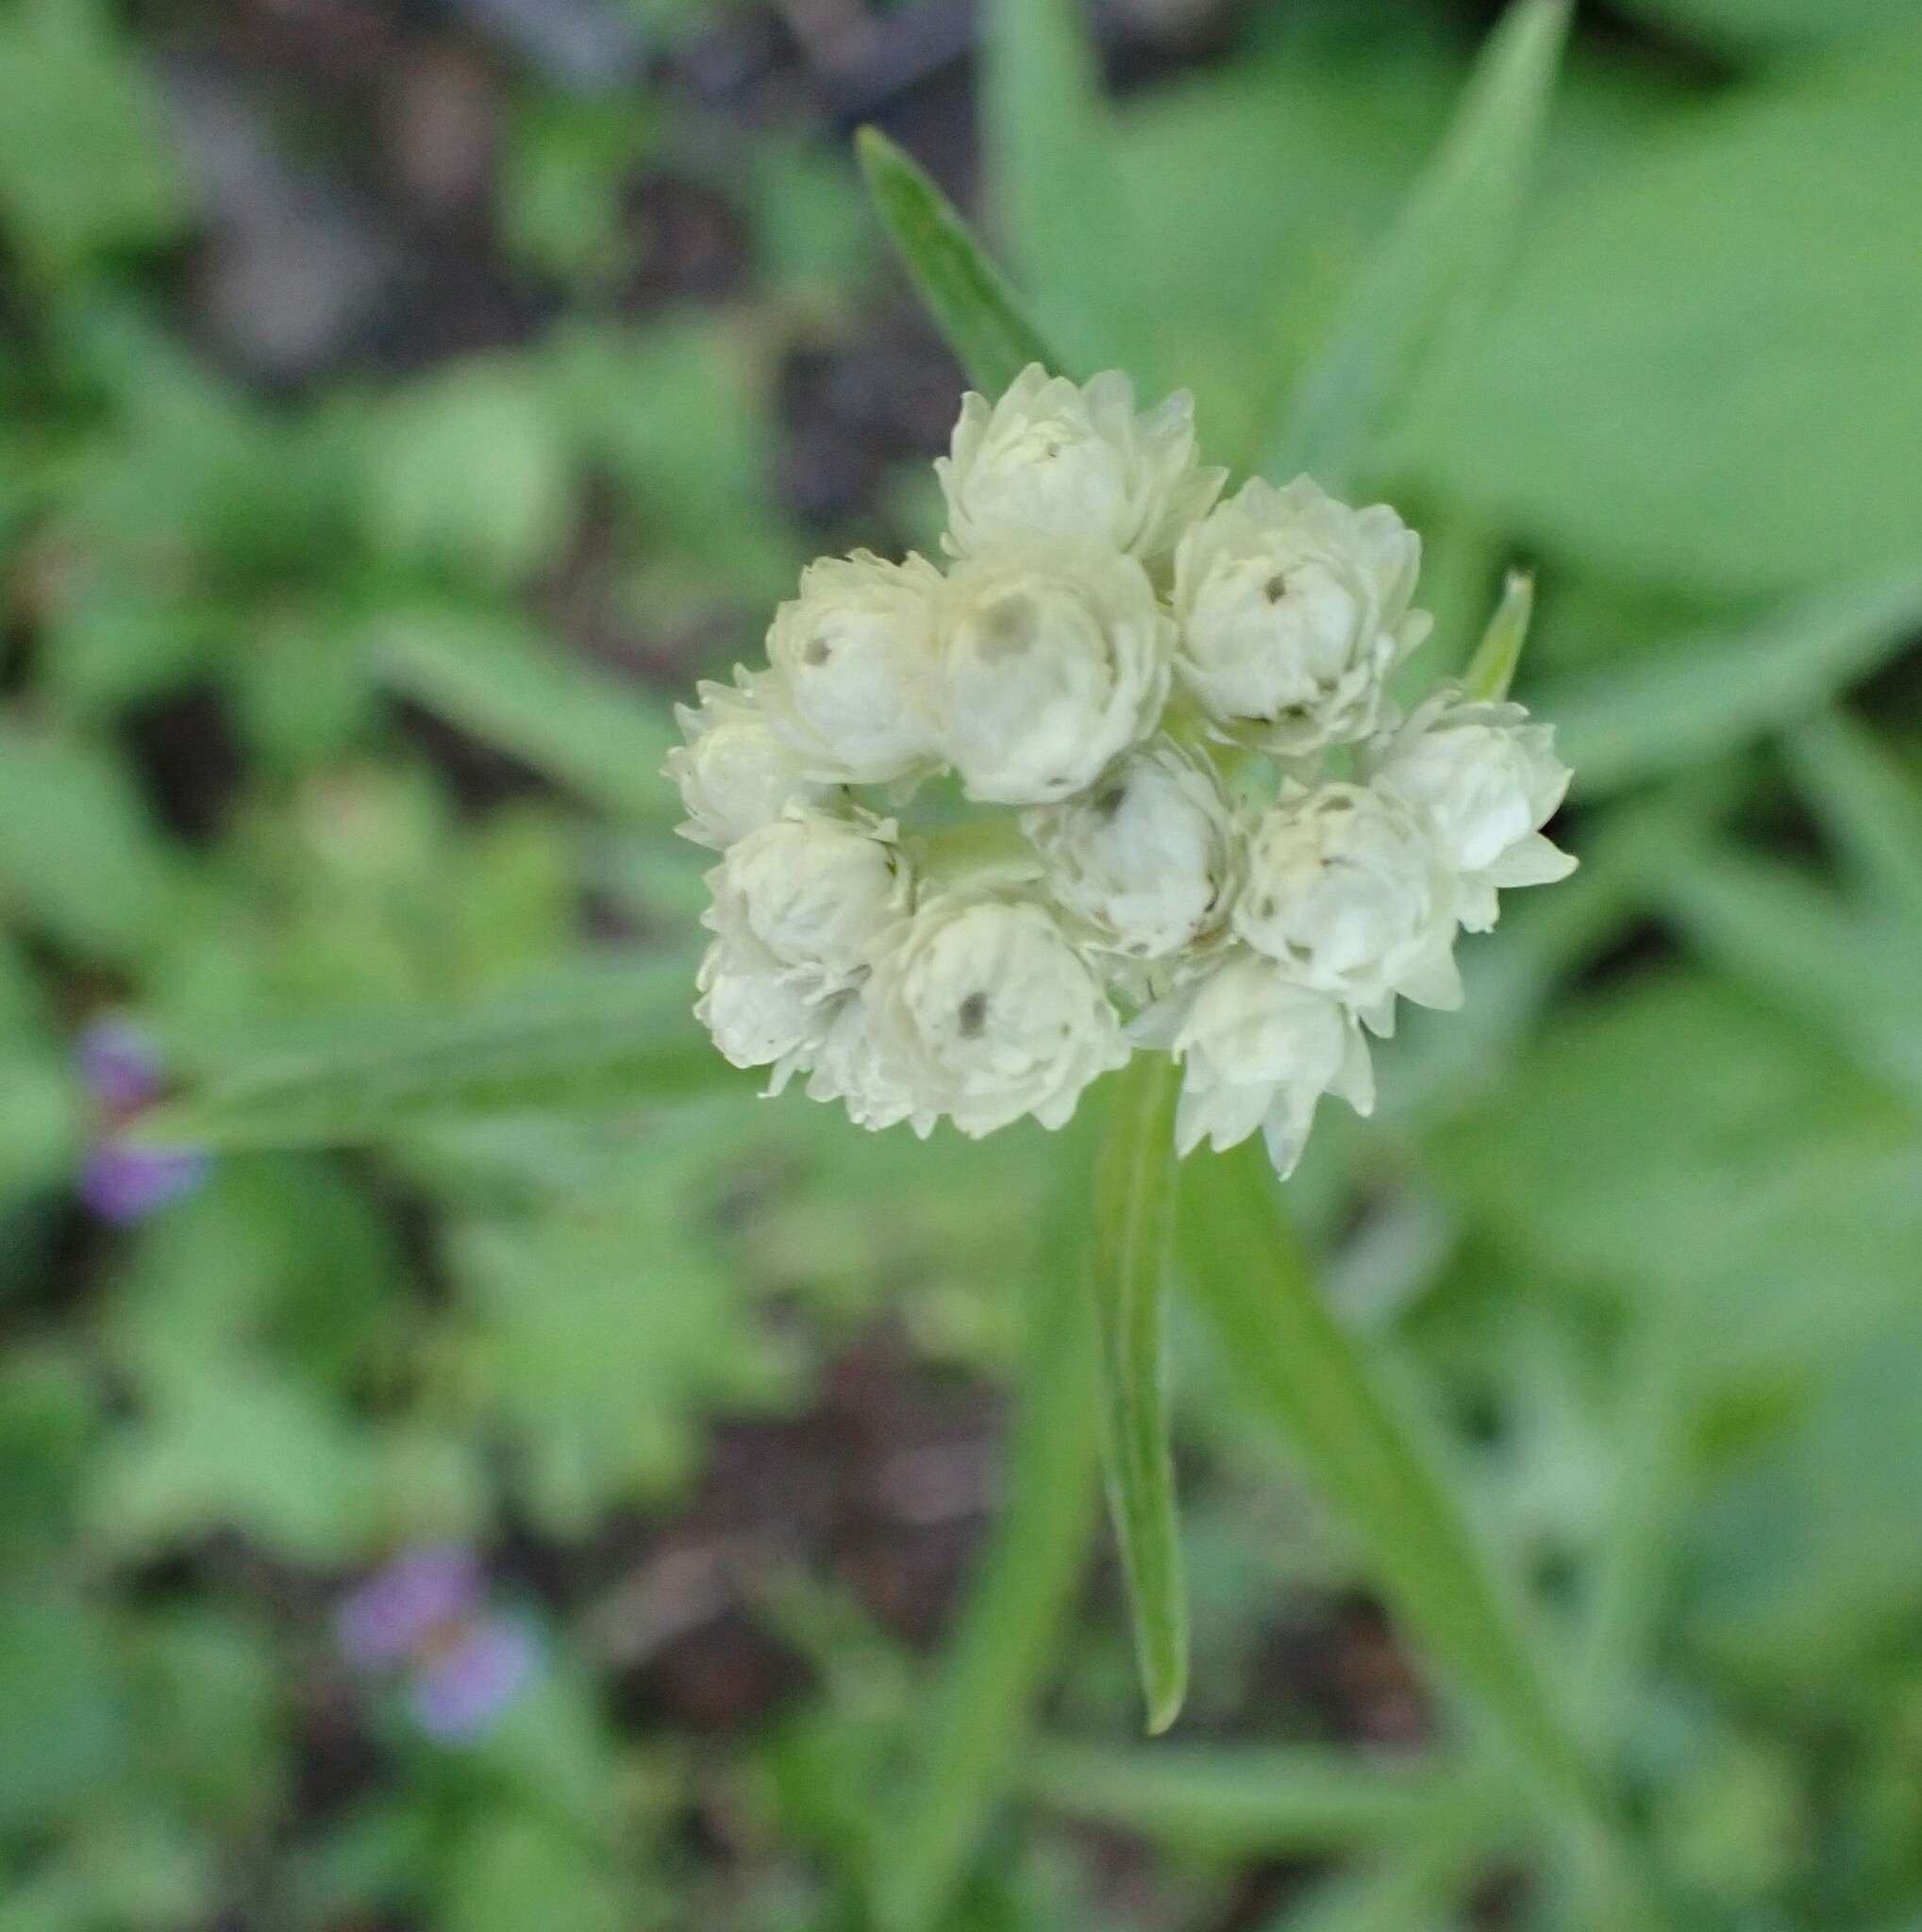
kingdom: Plantae
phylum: Tracheophyta
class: Magnoliopsida
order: Asterales
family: Asteraceae
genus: Anaphalis
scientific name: Anaphalis margaritacea
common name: Pearly everlasting
